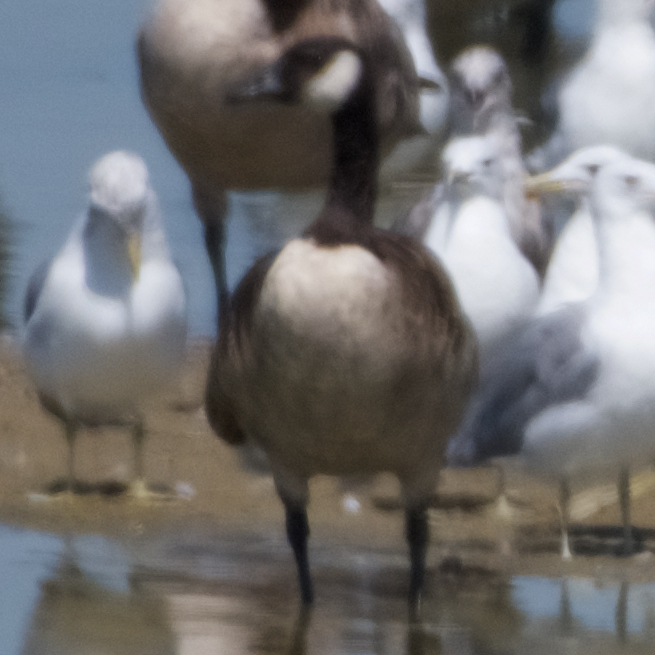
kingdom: Animalia
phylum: Chordata
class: Aves
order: Anseriformes
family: Anatidae
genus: Branta
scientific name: Branta canadensis
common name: Canada goose
